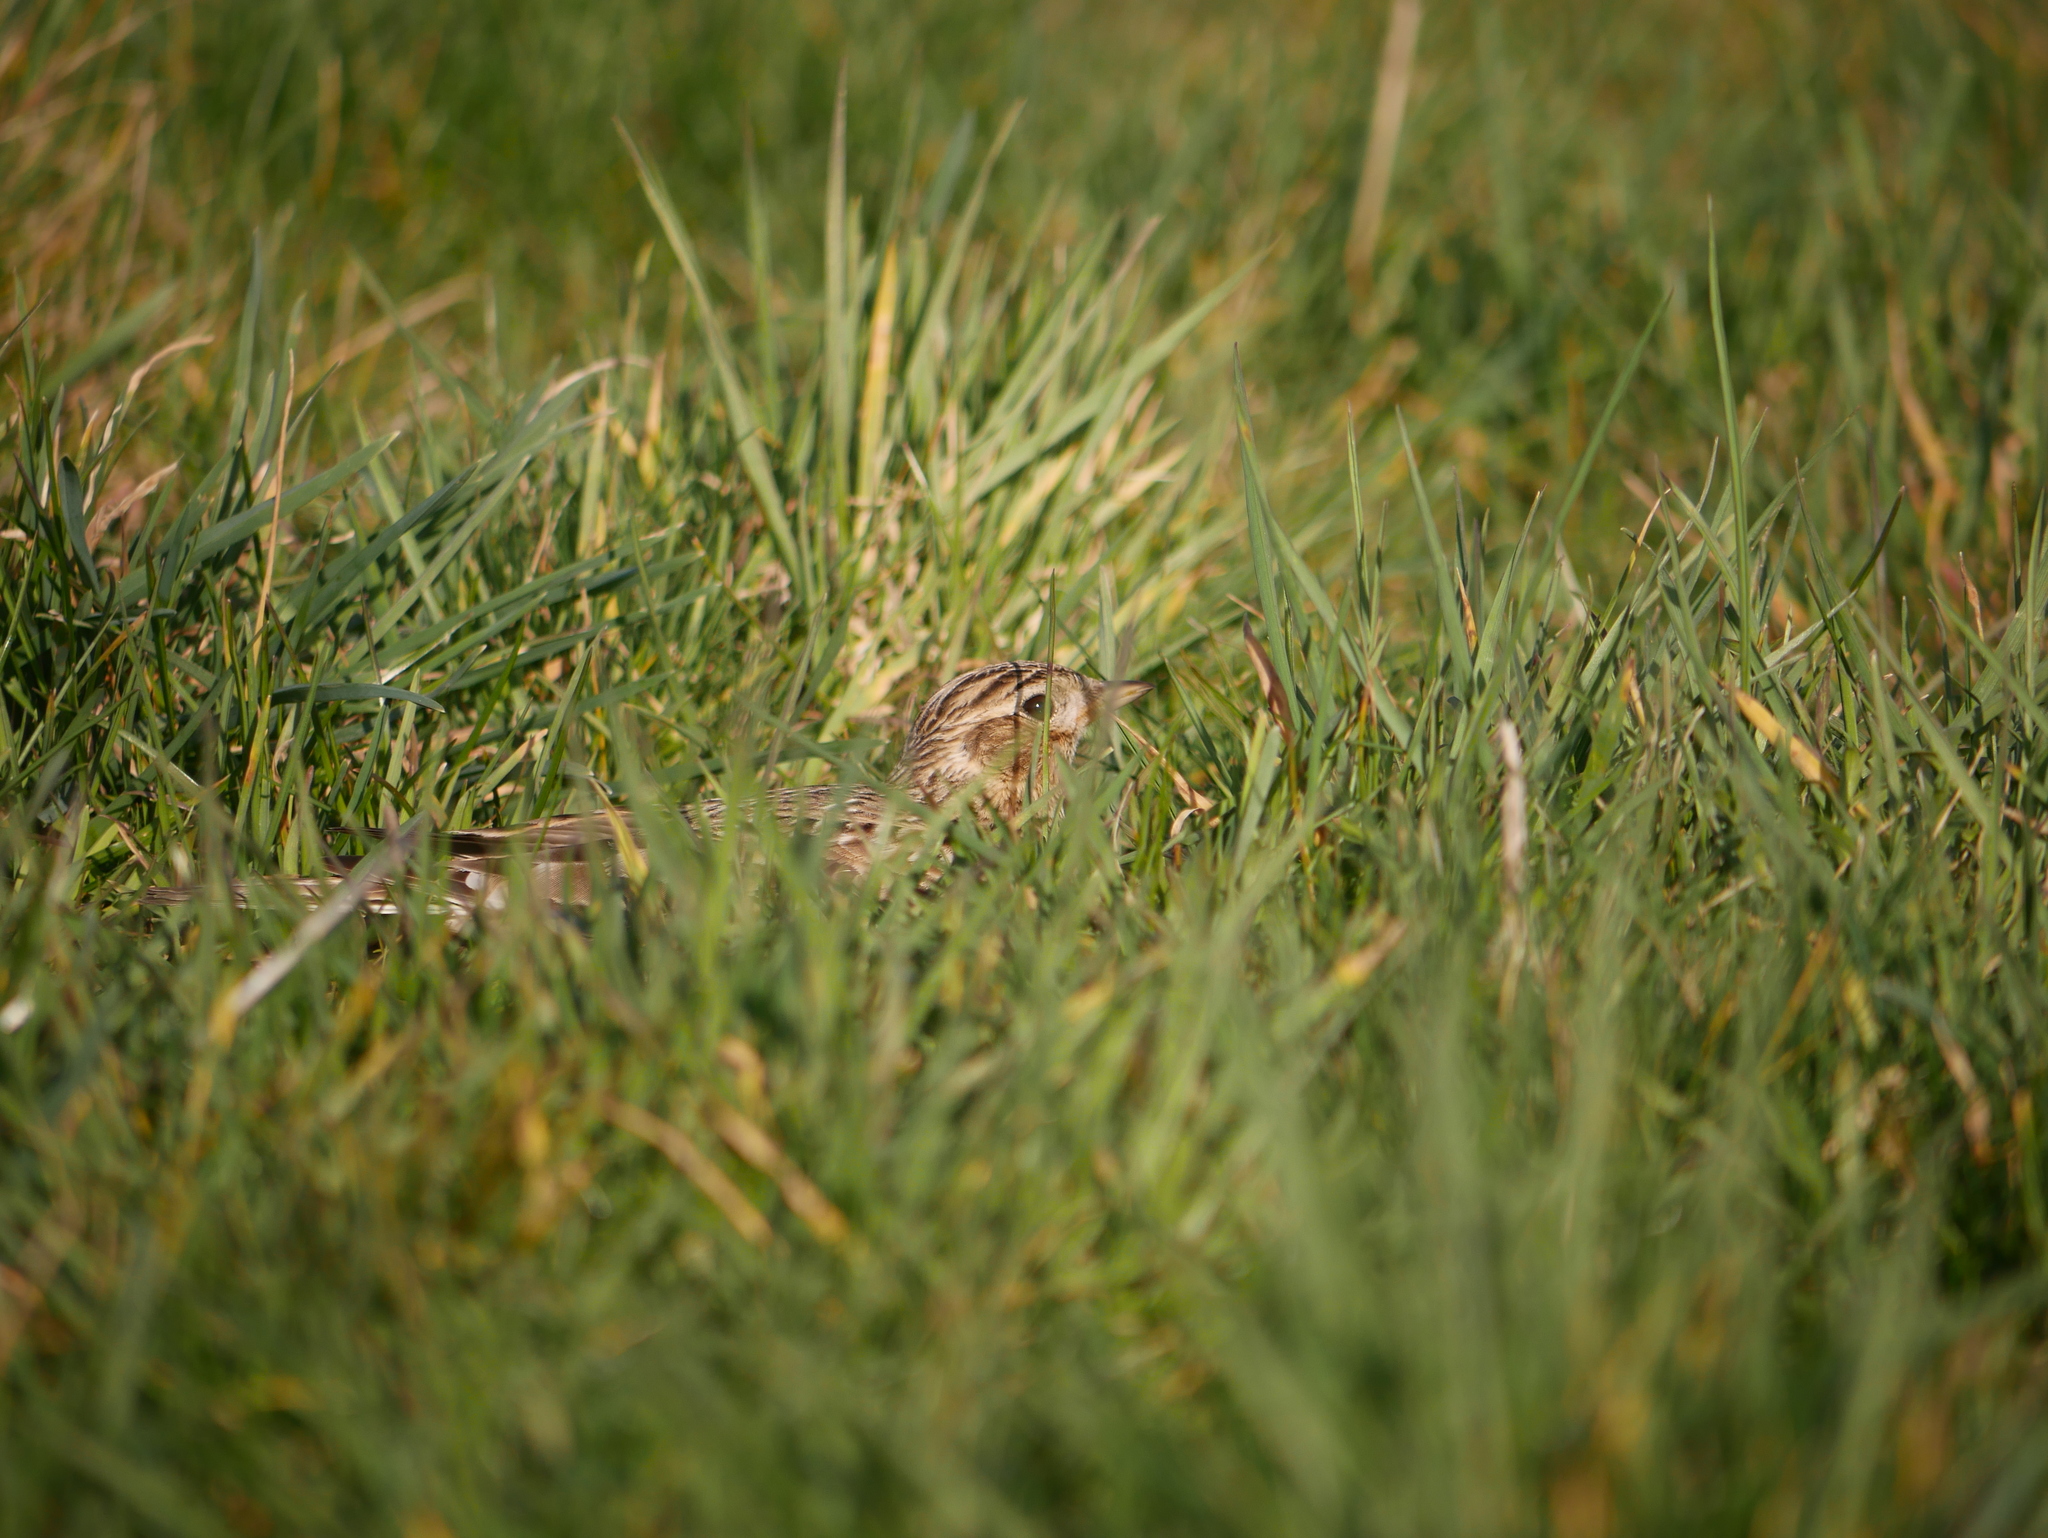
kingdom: Animalia
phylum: Chordata
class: Aves
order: Passeriformes
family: Alaudidae
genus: Alauda
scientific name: Alauda arvensis
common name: Eurasian skylark
